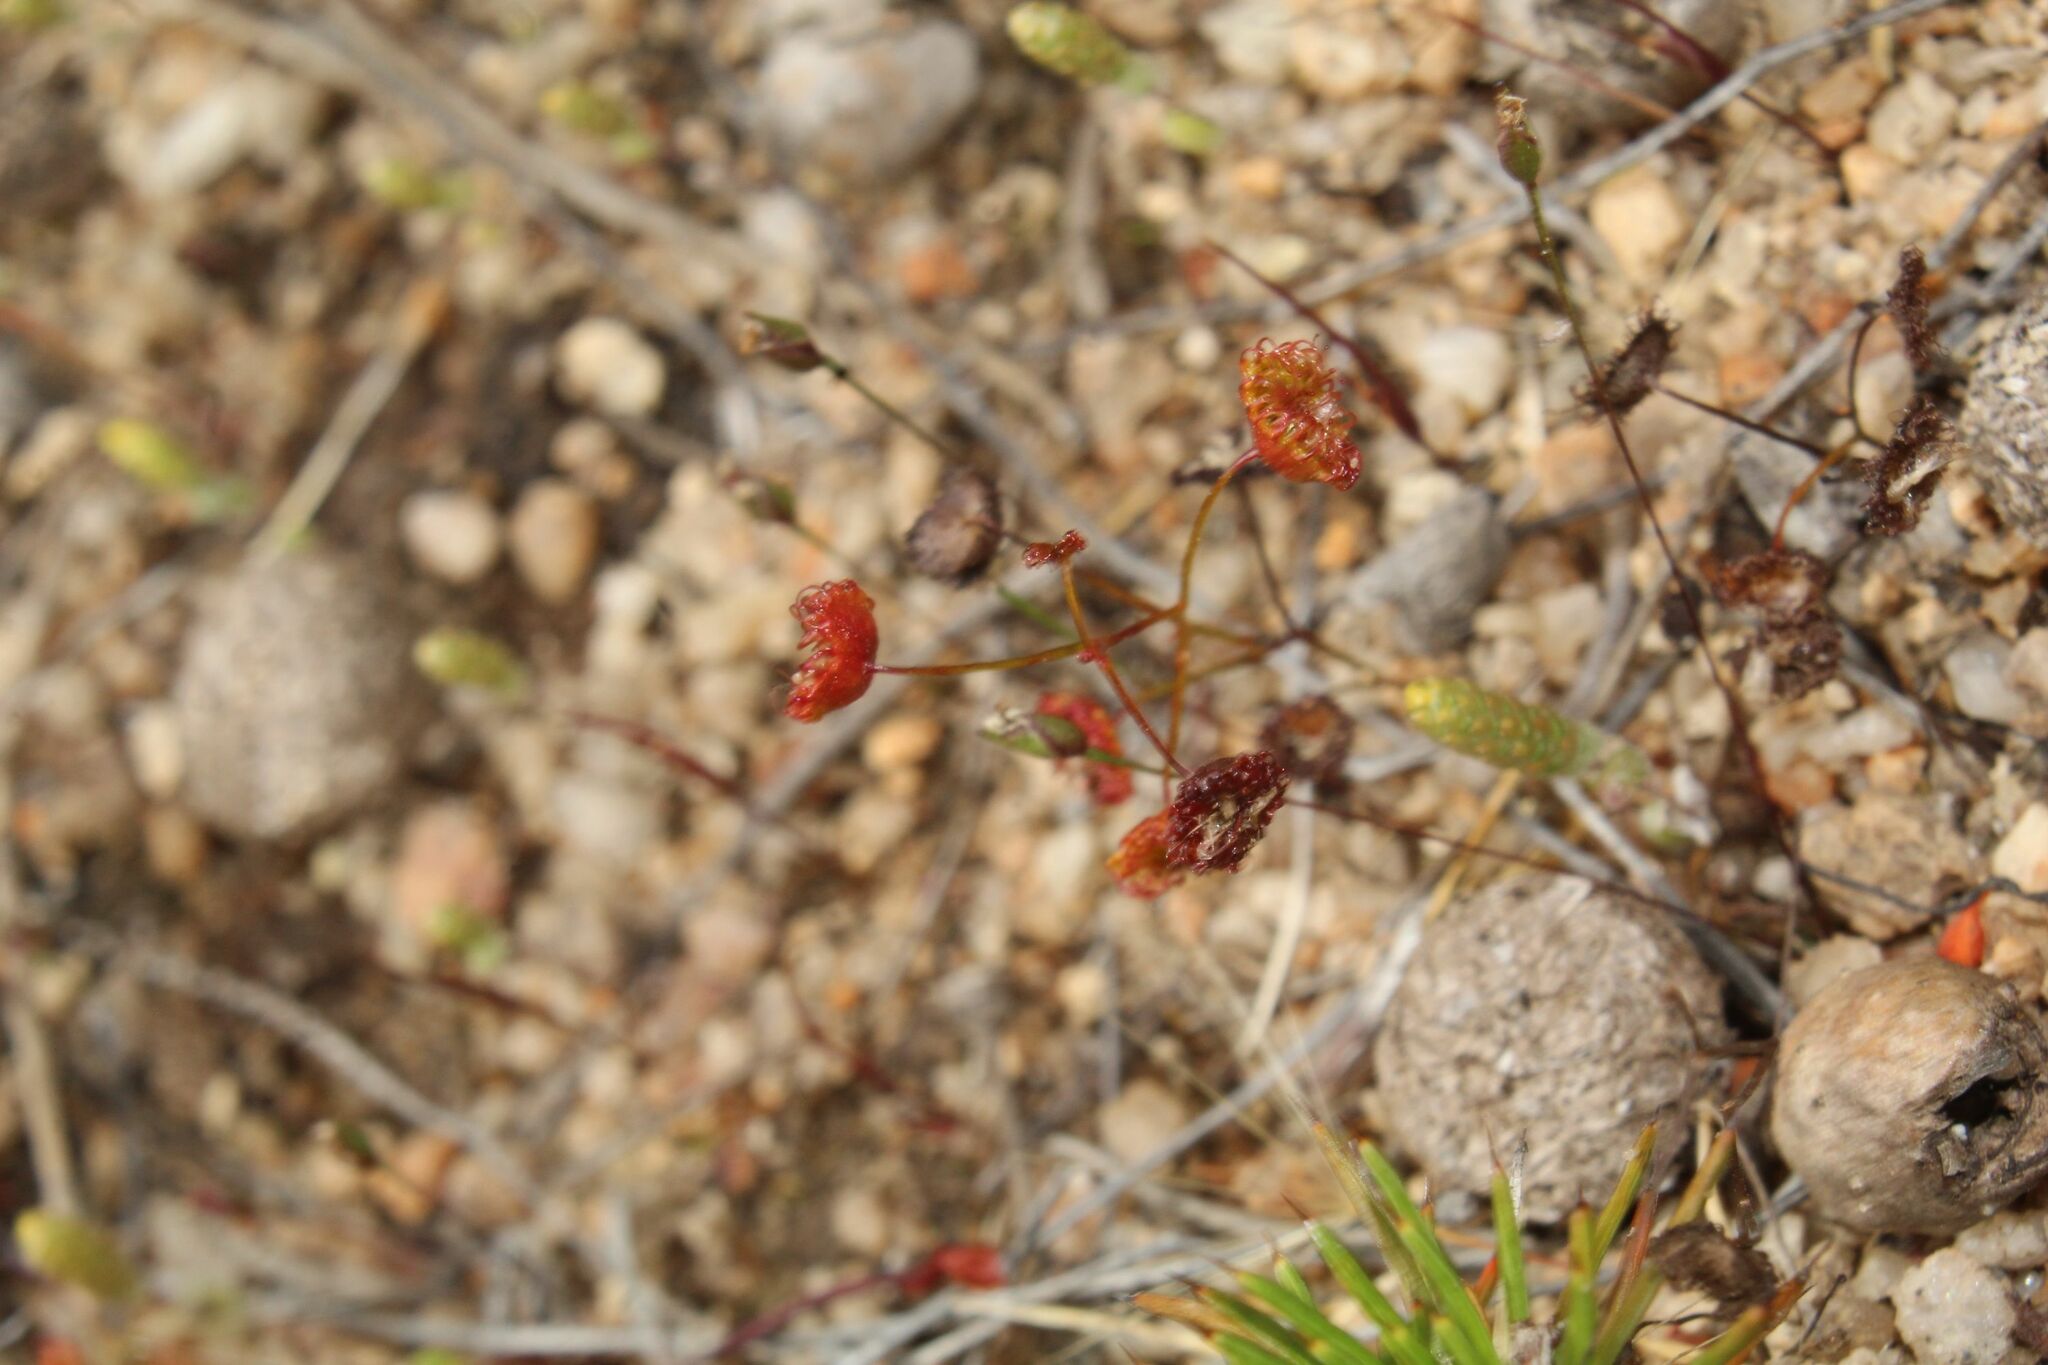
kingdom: Plantae
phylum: Tracheophyta
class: Magnoliopsida
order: Caryophyllales
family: Droseraceae
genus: Drosera
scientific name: Drosera andersoniana
